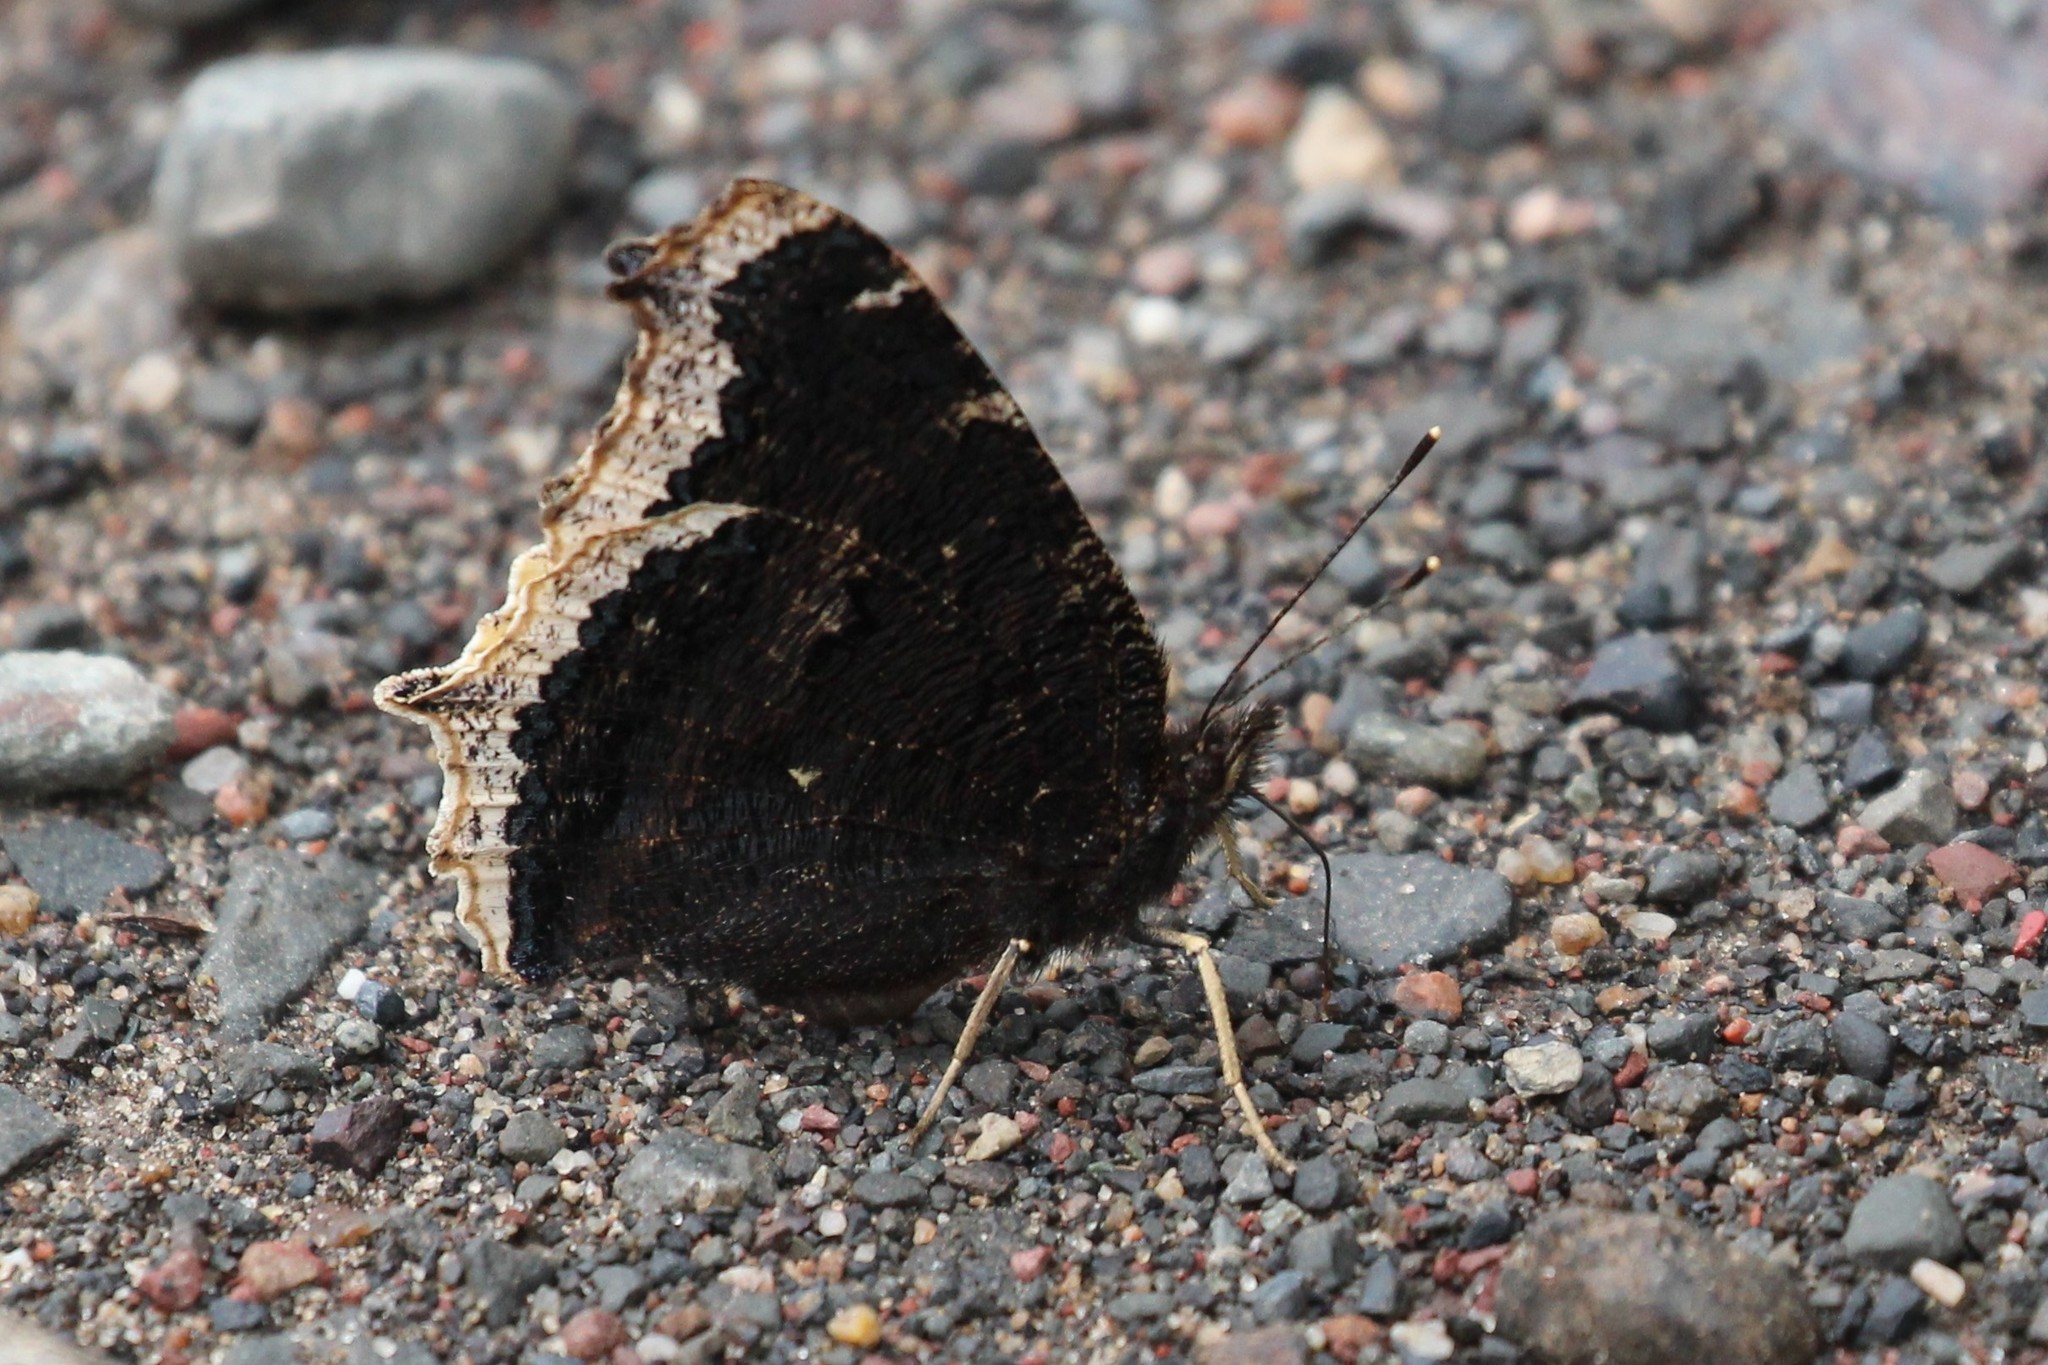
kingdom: Animalia
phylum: Arthropoda
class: Insecta
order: Lepidoptera
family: Nymphalidae
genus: Nymphalis
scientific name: Nymphalis antiopa
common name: Camberwell beauty
